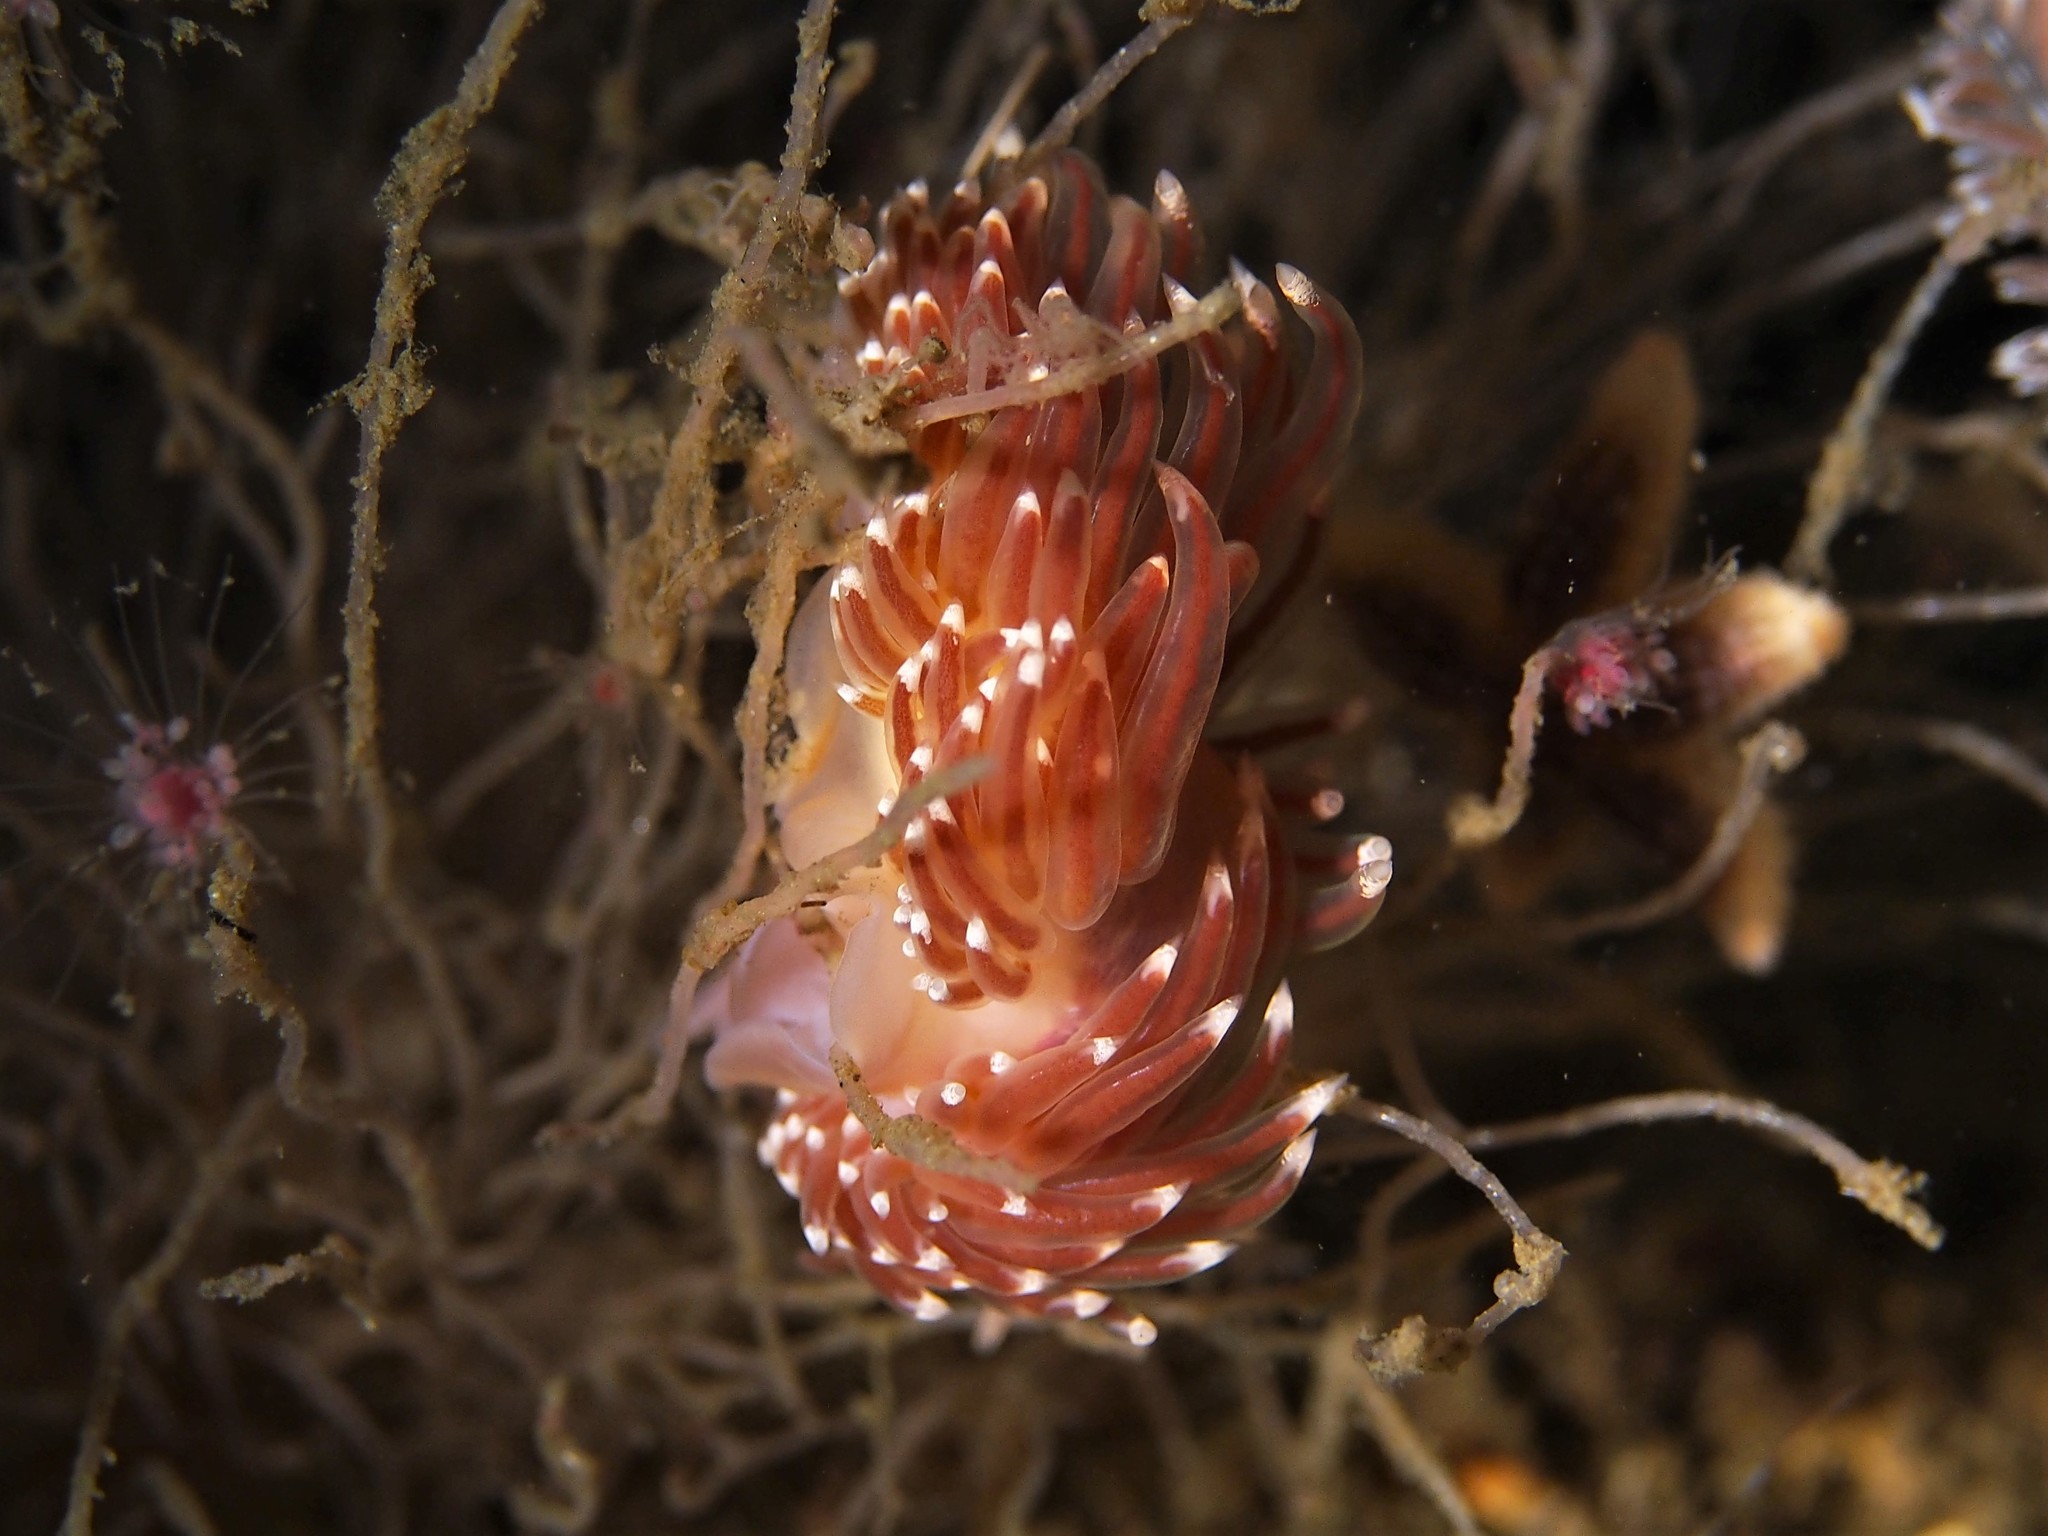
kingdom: Animalia
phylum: Mollusca
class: Gastropoda
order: Nudibranchia
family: Facelinidae
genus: Facelina
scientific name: Facelina bostoniensis
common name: Boston facelina
